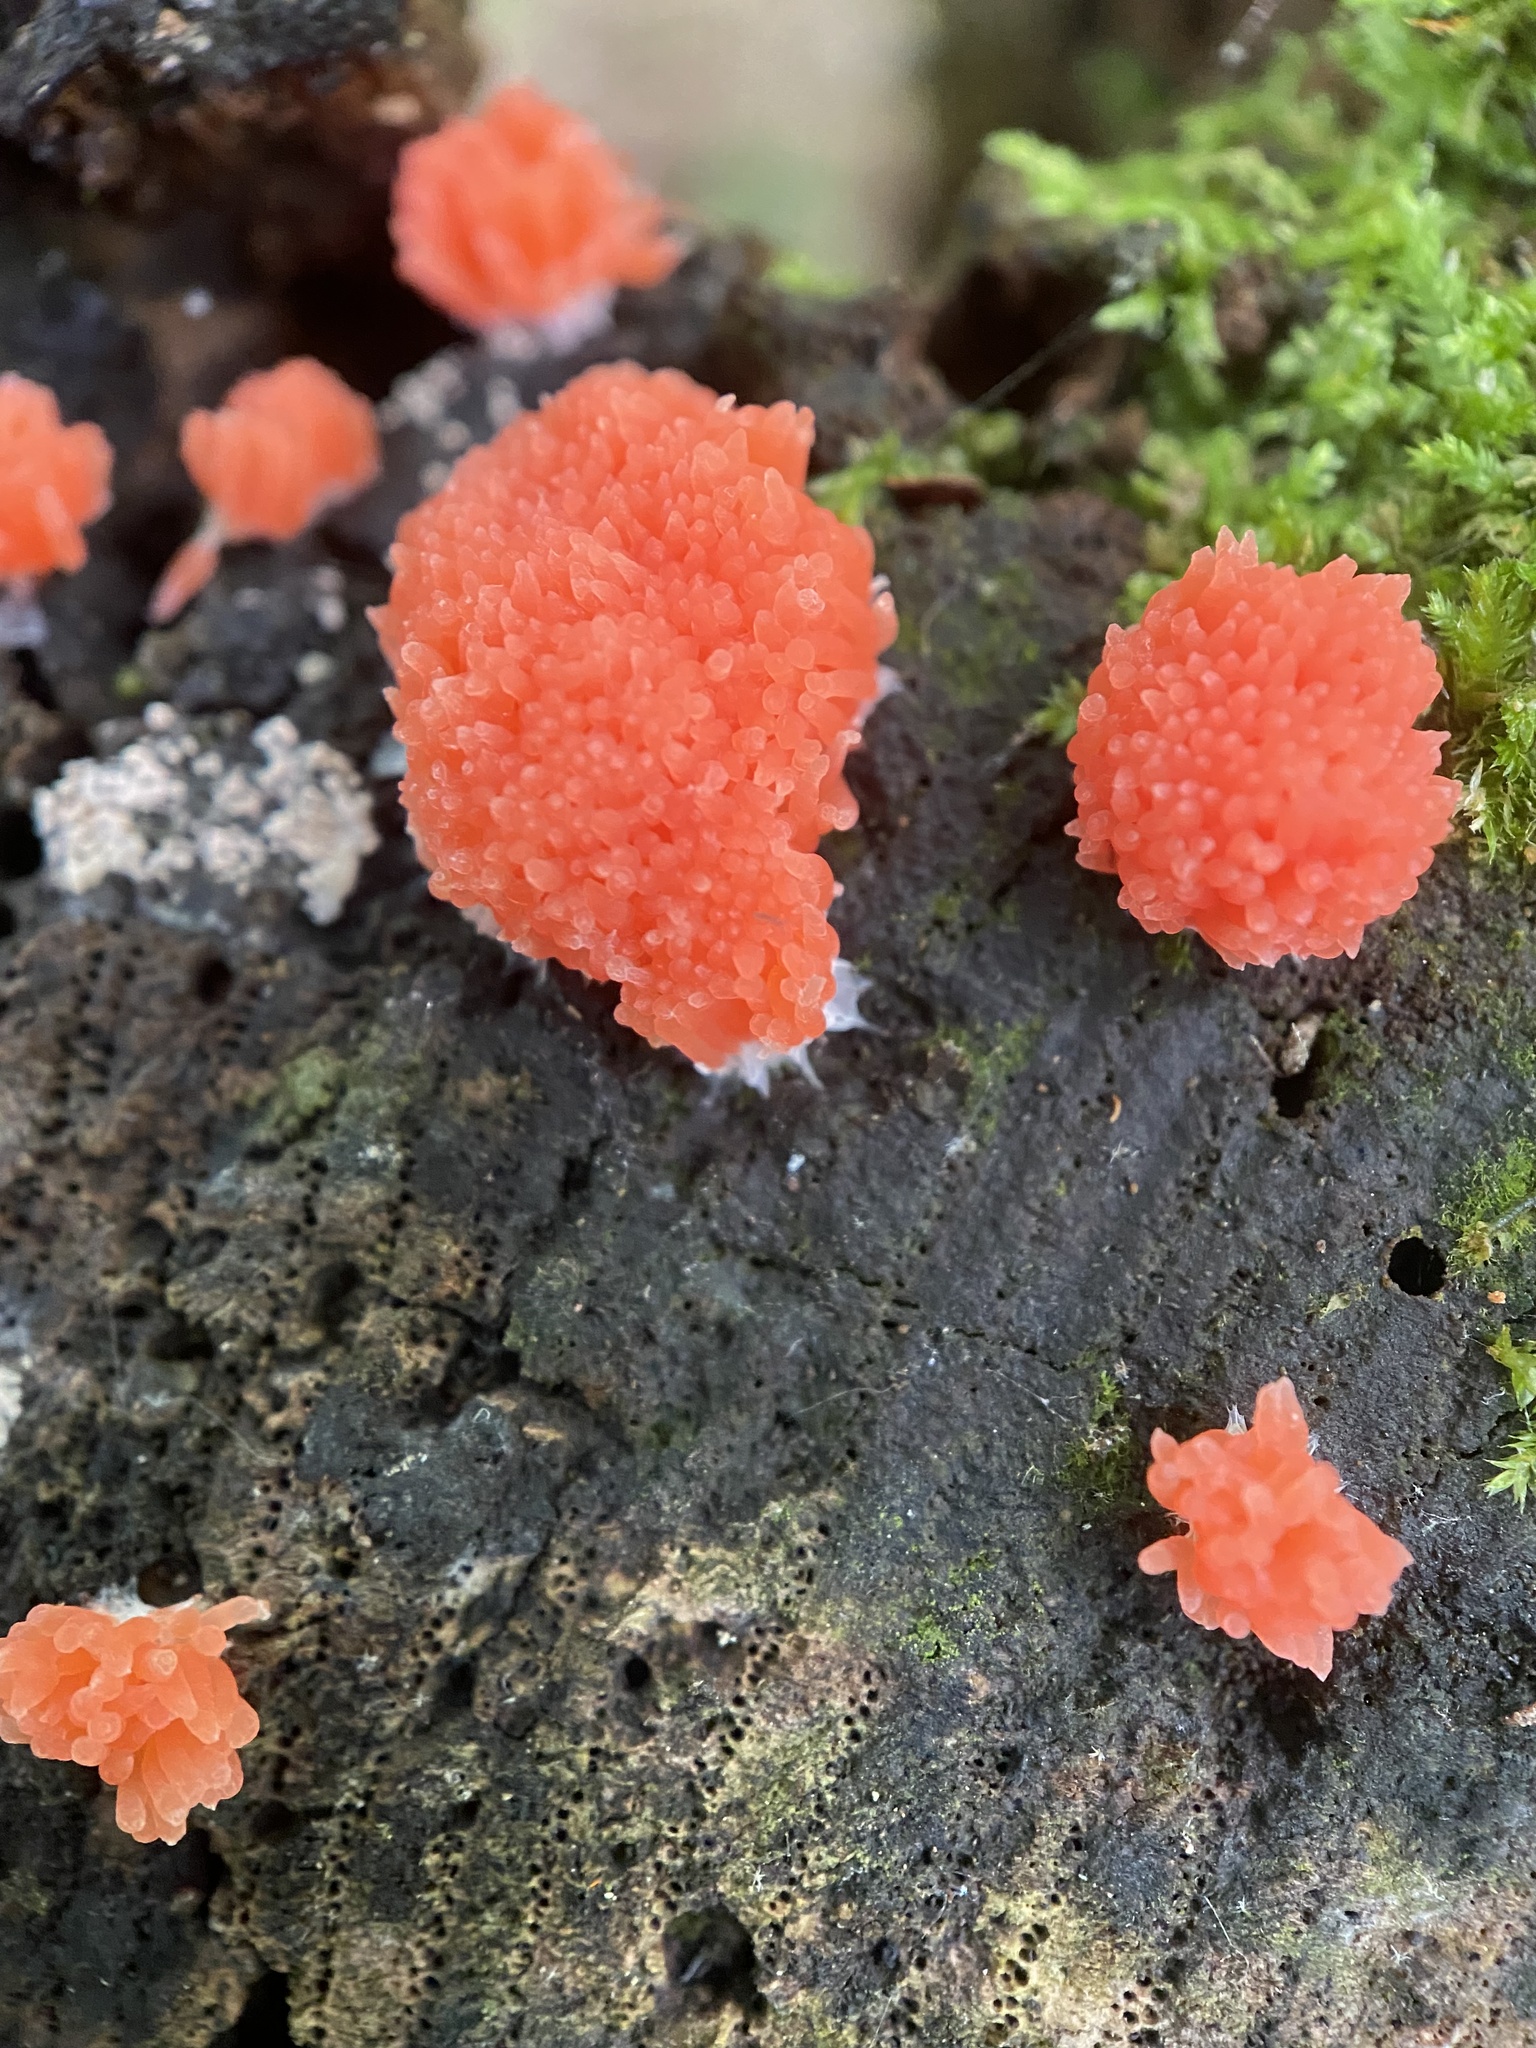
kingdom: Protozoa
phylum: Mycetozoa
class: Myxomycetes
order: Cribrariales
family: Tubiferaceae
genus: Tubifera
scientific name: Tubifera ferruginosa
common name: Red raspberry slime mold
